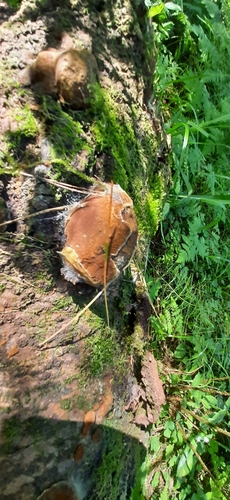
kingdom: Fungi
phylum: Basidiomycota
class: Agaricomycetes
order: Hymenochaetales
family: Hymenochaetaceae
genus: Phellinus
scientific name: Phellinus hartigii
